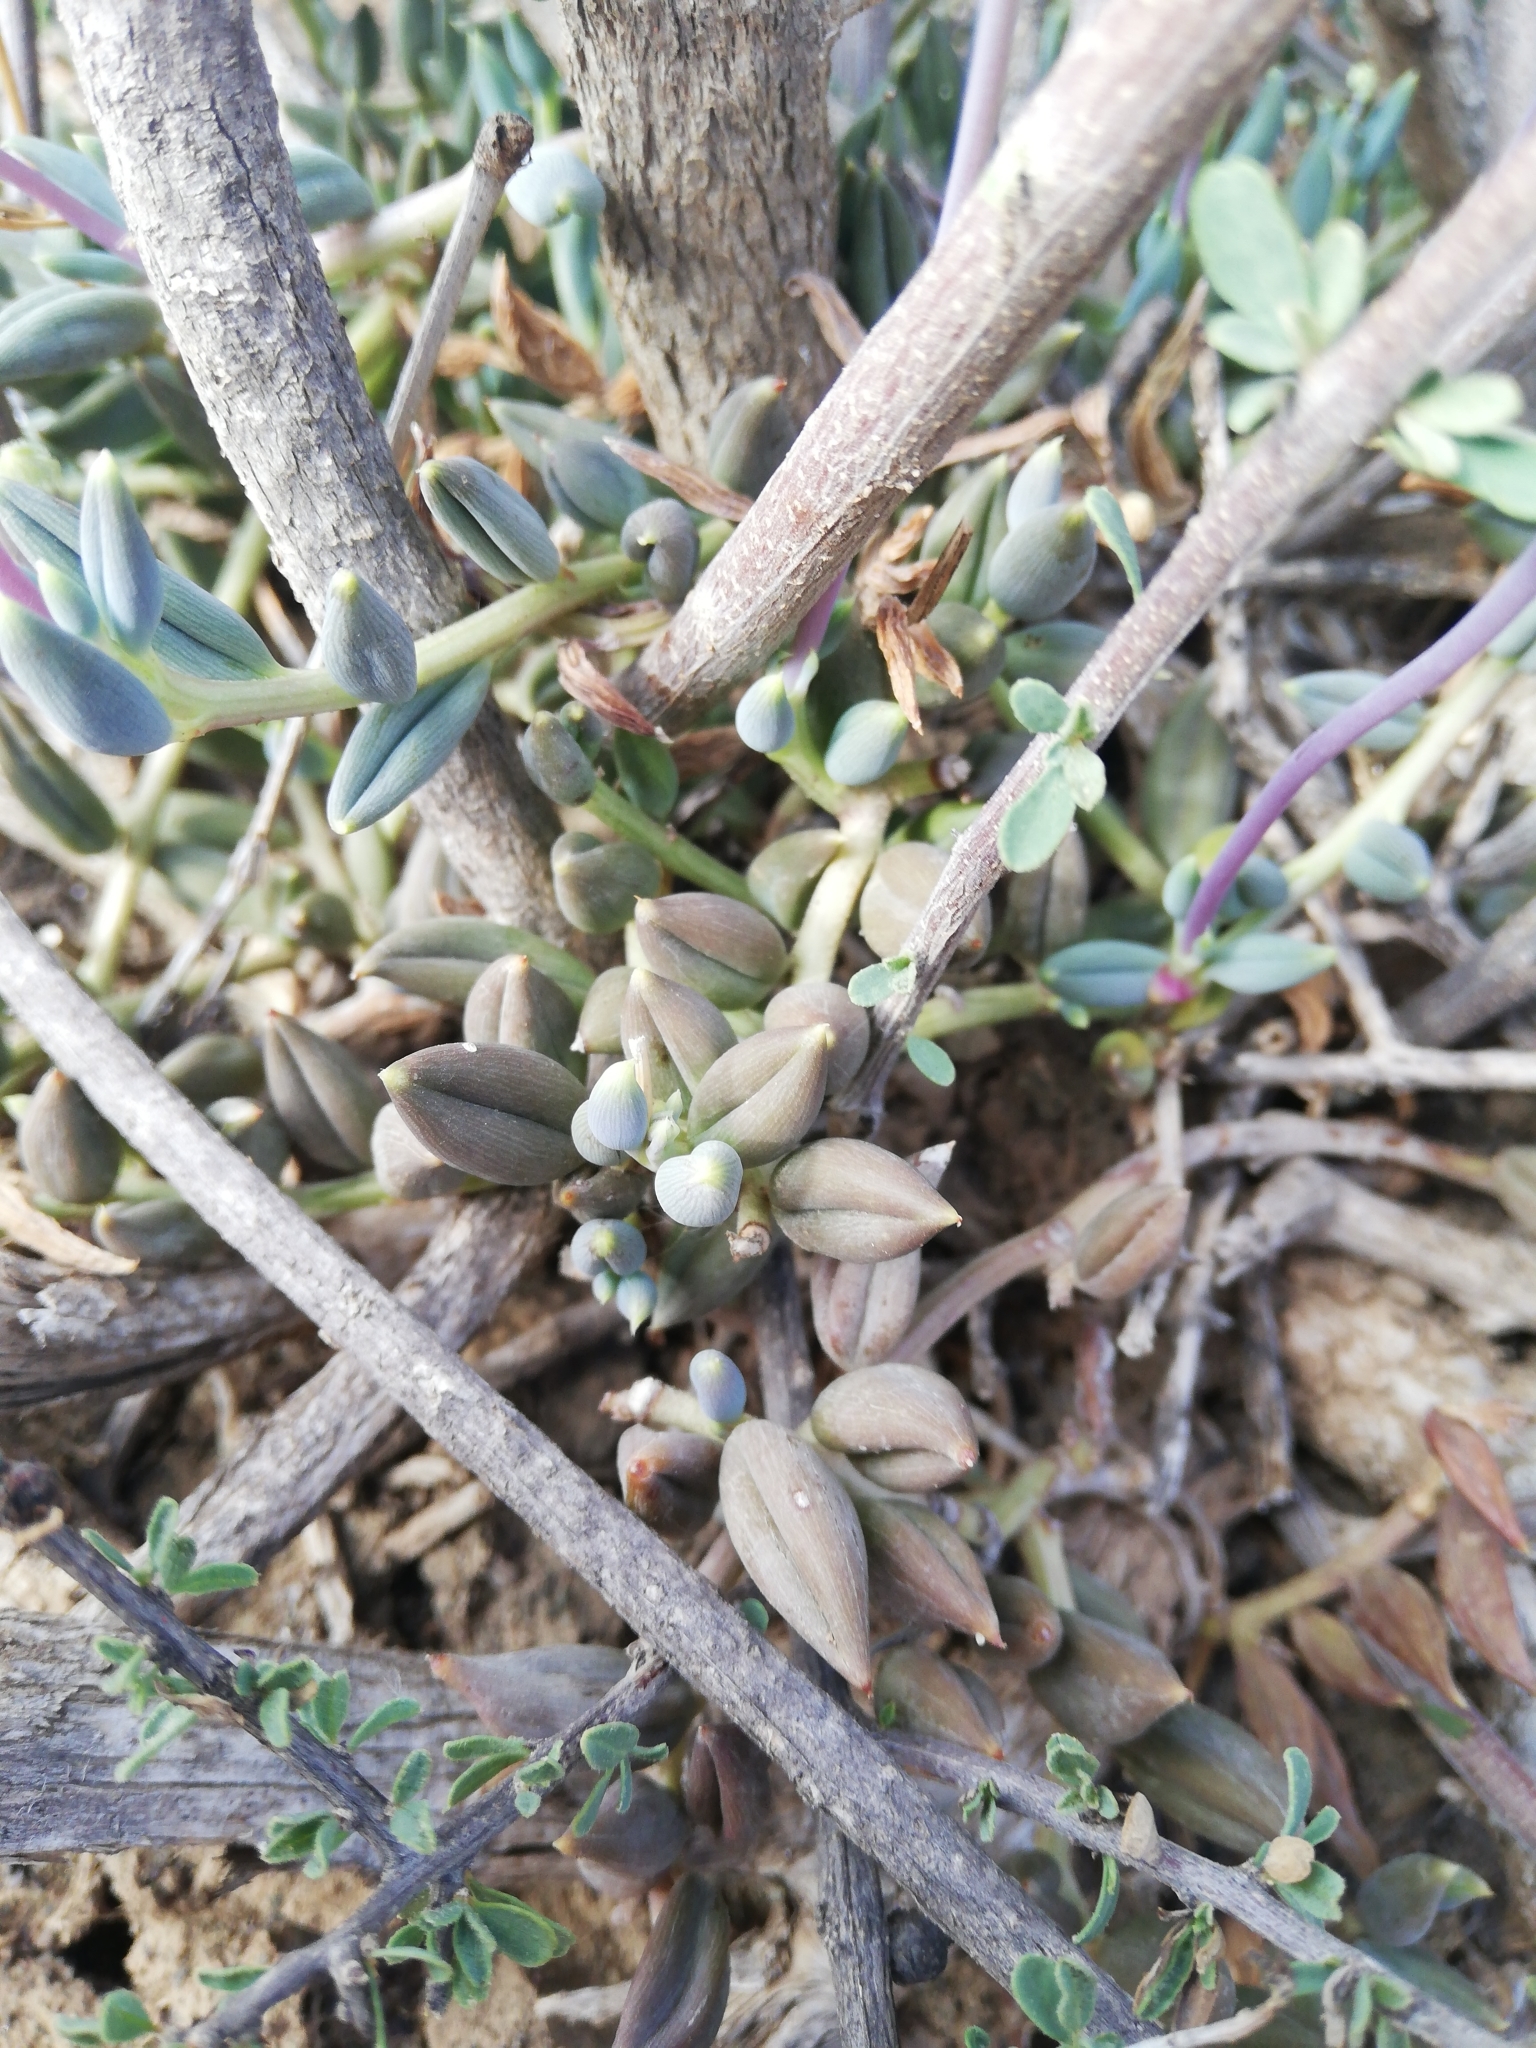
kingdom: Plantae
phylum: Tracheophyta
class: Magnoliopsida
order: Asterales
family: Asteraceae
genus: Curio
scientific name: Curio radicans
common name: Creeping-berry
